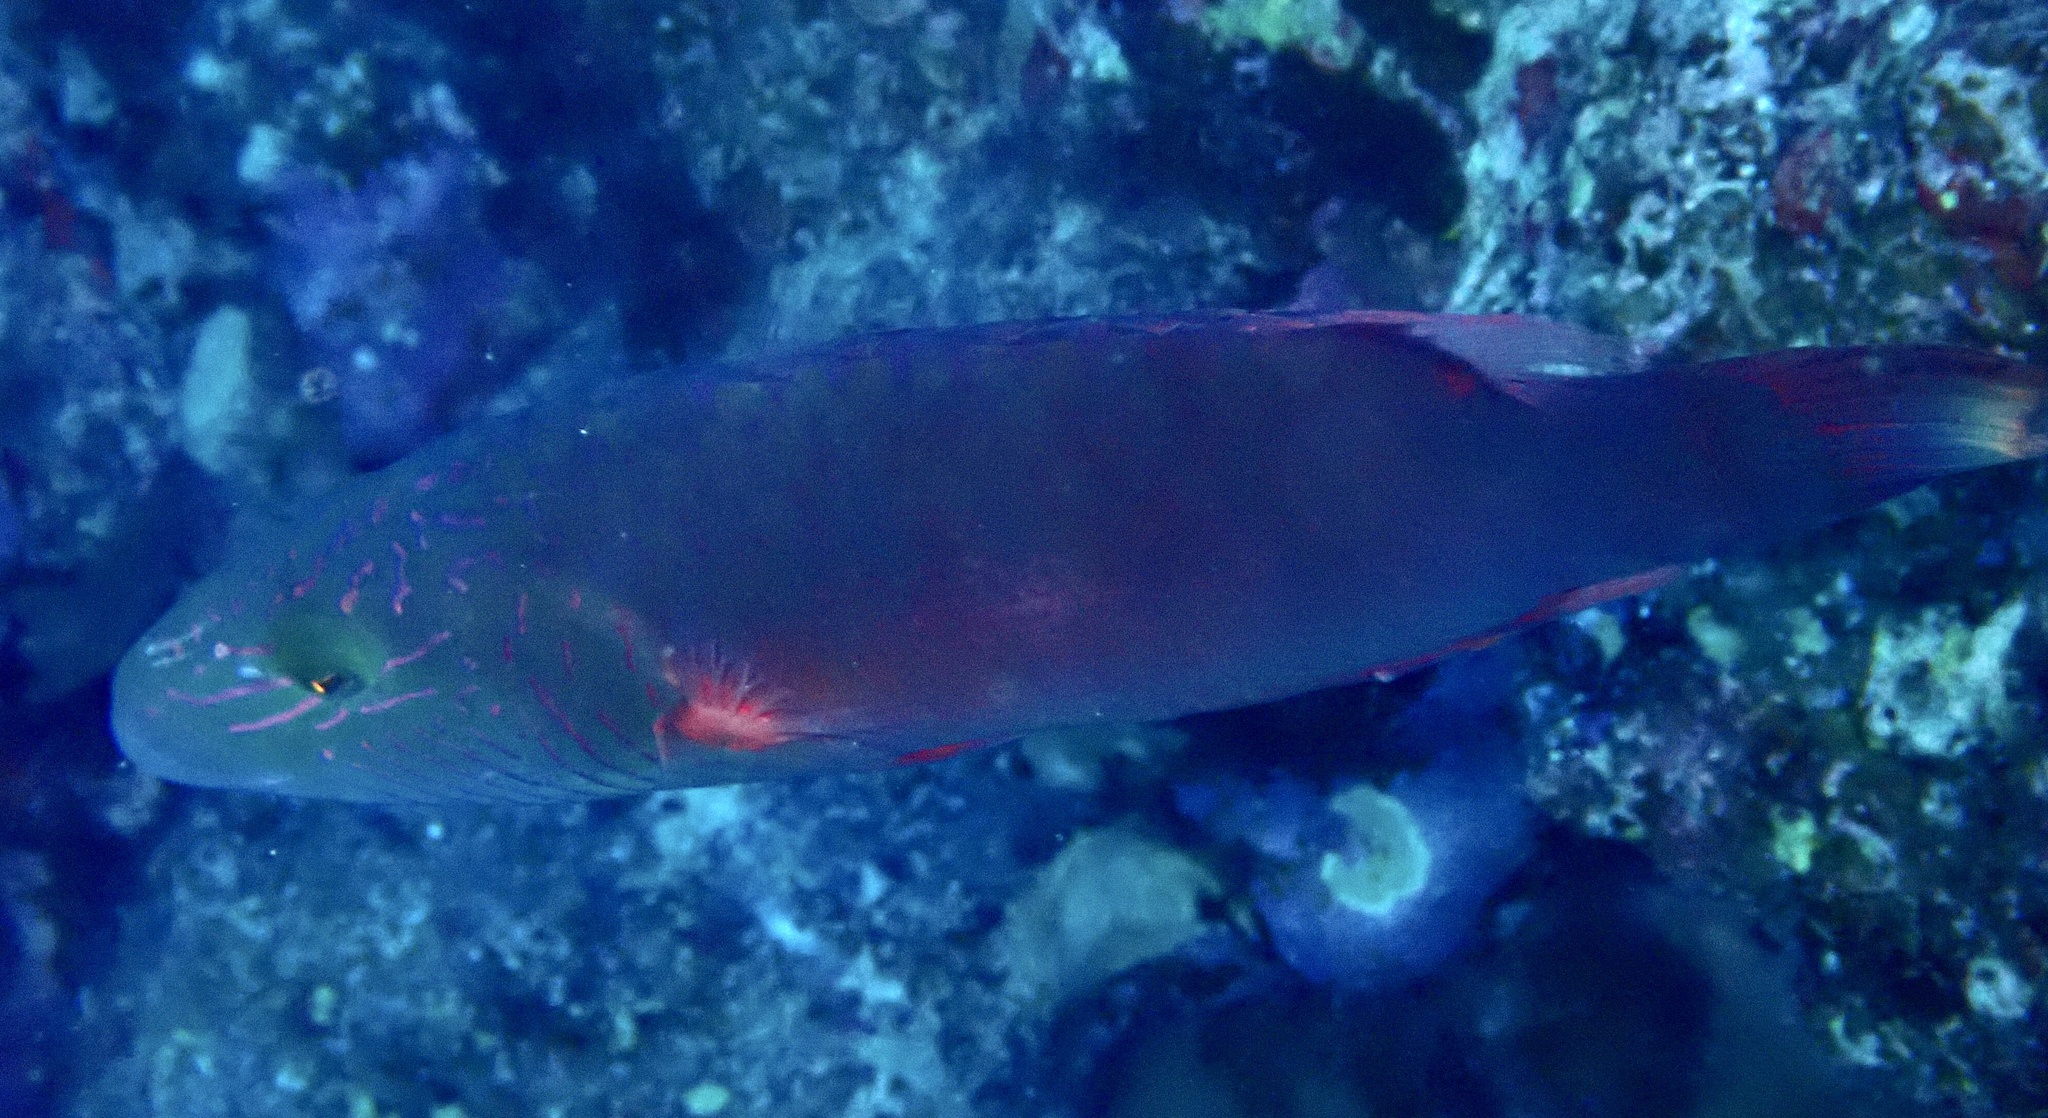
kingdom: Animalia
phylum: Chordata
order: Perciformes
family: Labridae
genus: Oxycheilinus
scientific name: Oxycheilinus digramma
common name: Bandcheek wrasse
